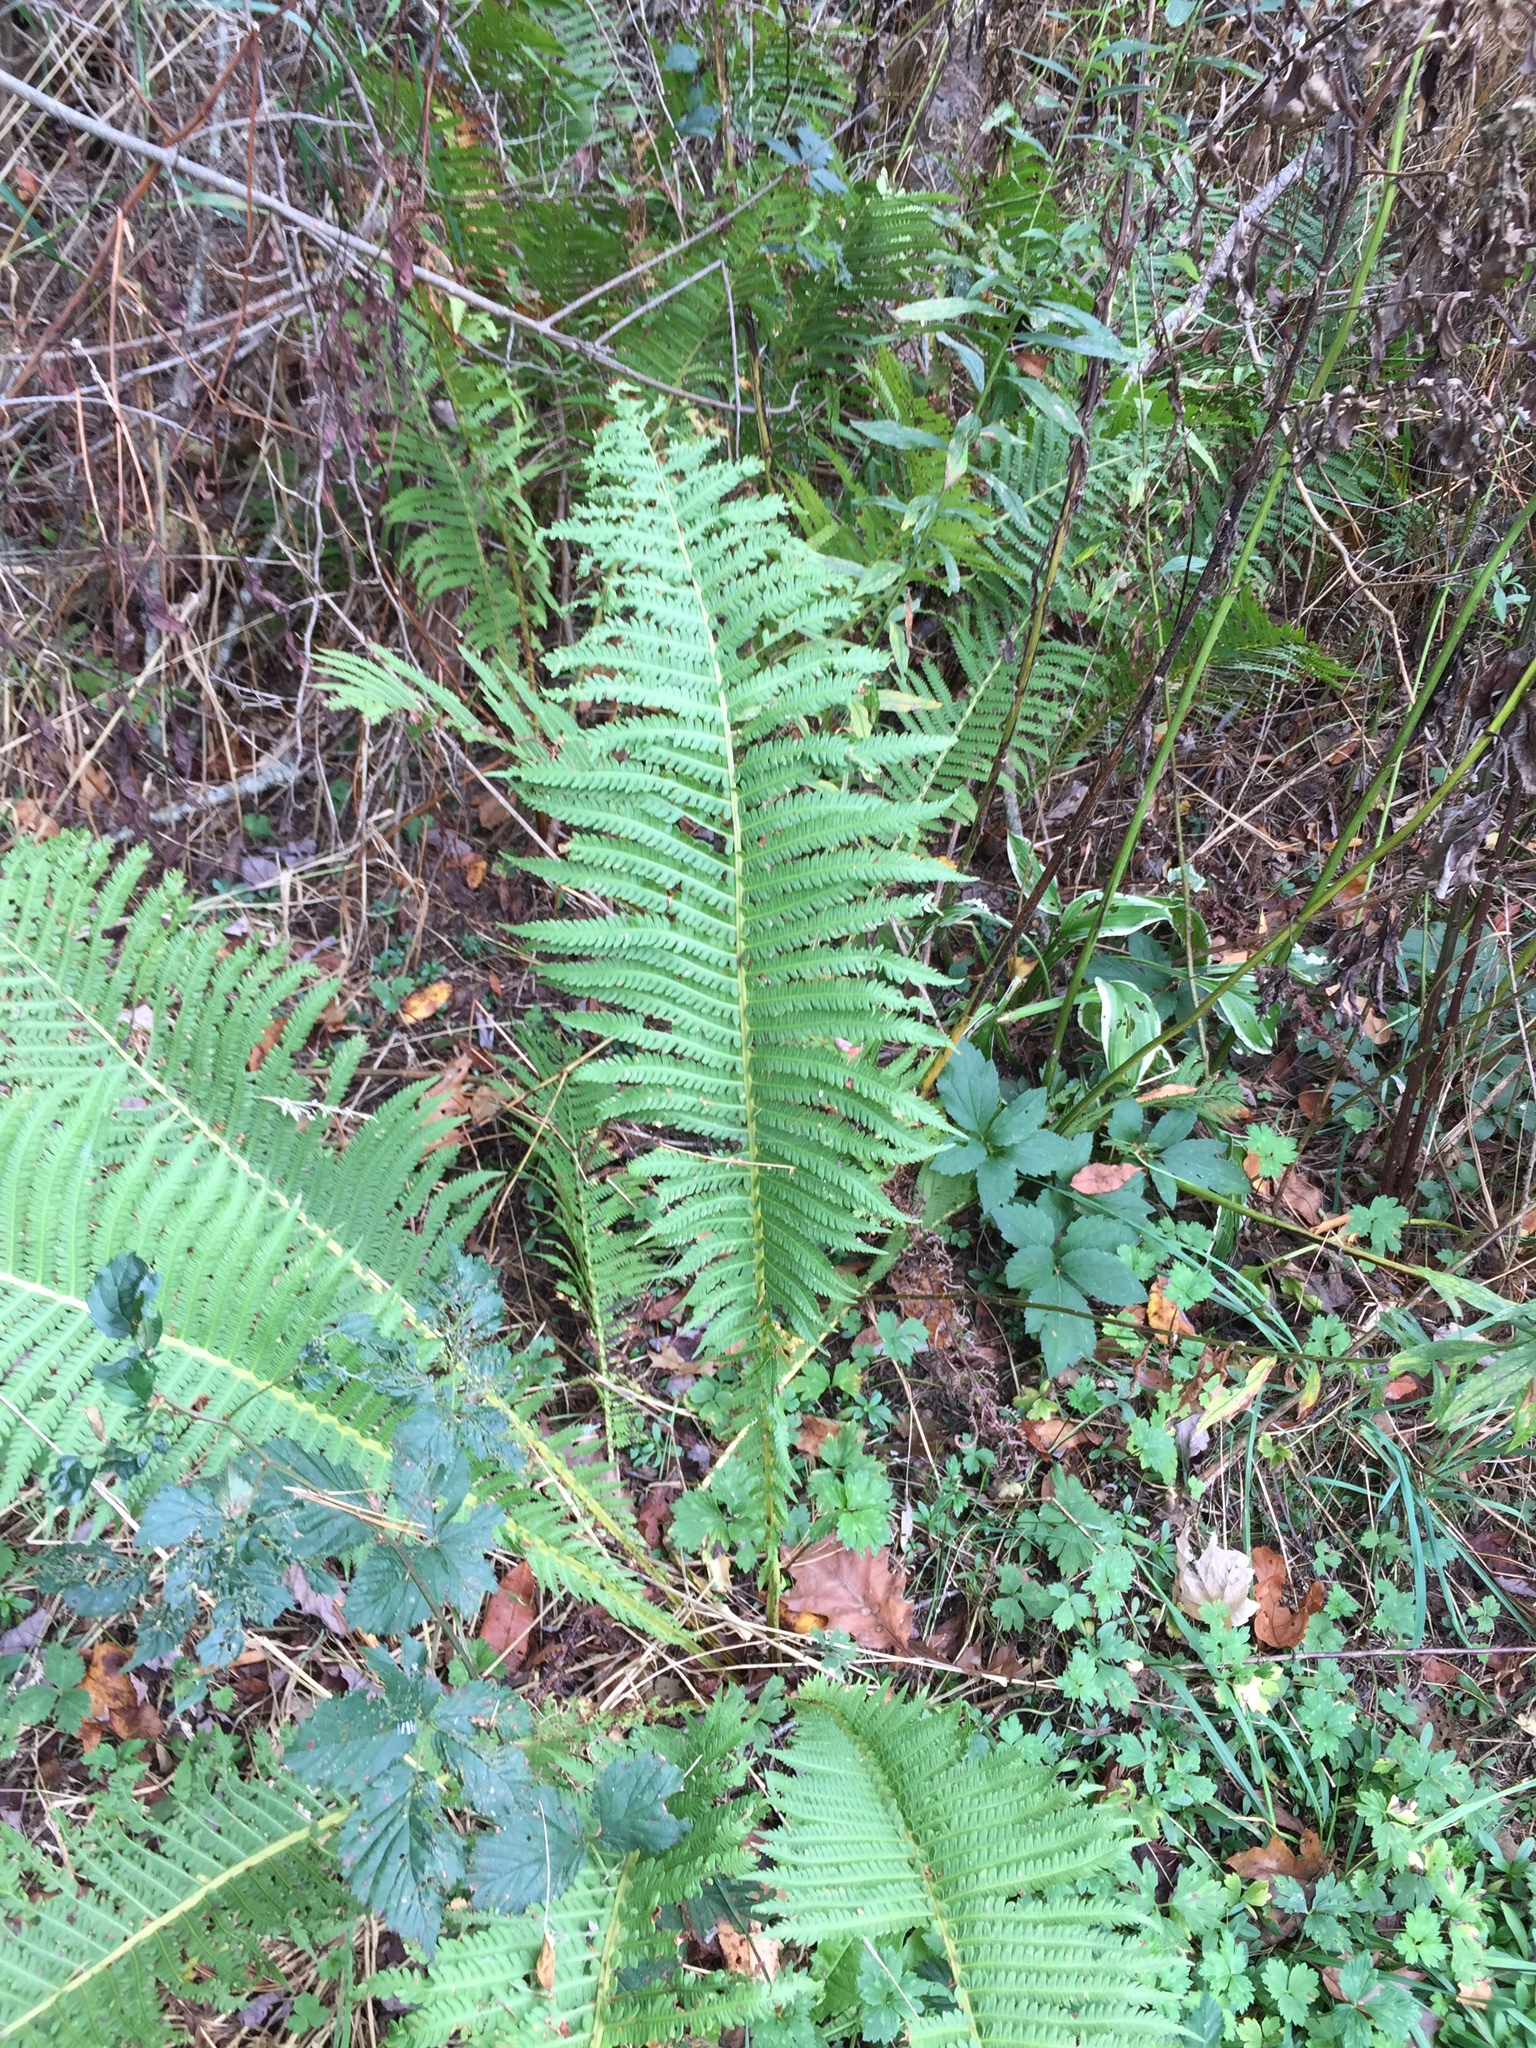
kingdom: Plantae
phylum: Tracheophyta
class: Polypodiopsida
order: Polypodiales
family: Onocleaceae
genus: Matteuccia
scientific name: Matteuccia struthiopteris
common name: Ostrich fern
